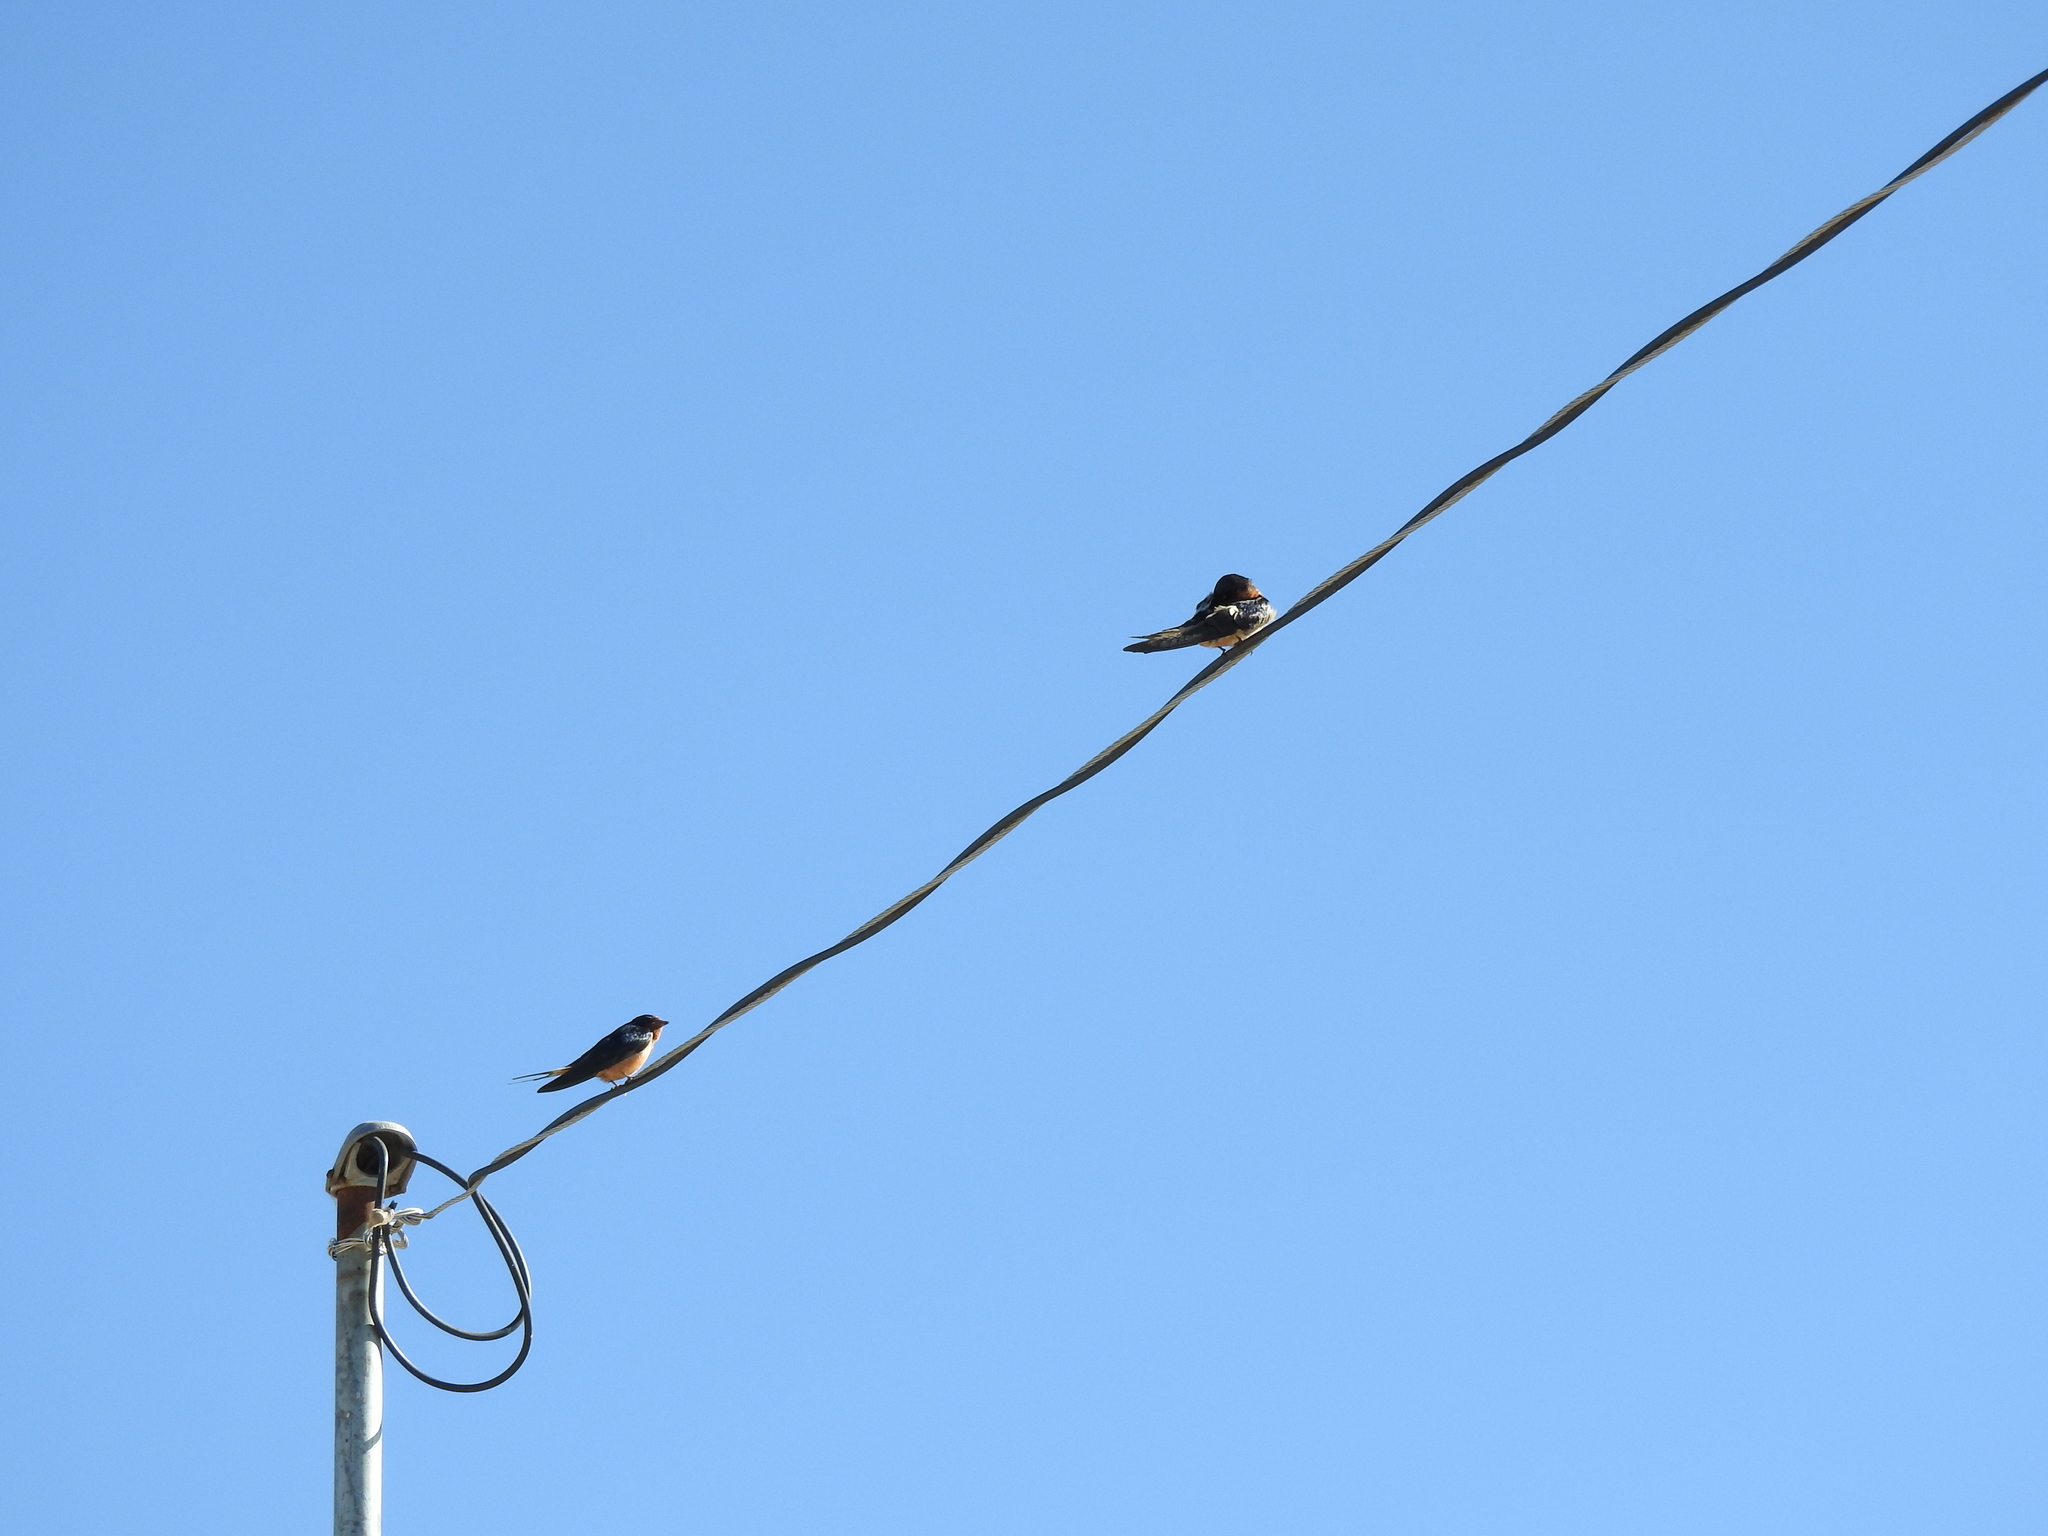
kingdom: Animalia
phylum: Chordata
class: Aves
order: Passeriformes
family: Hirundinidae
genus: Hirundo
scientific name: Hirundo rustica
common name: Barn swallow
